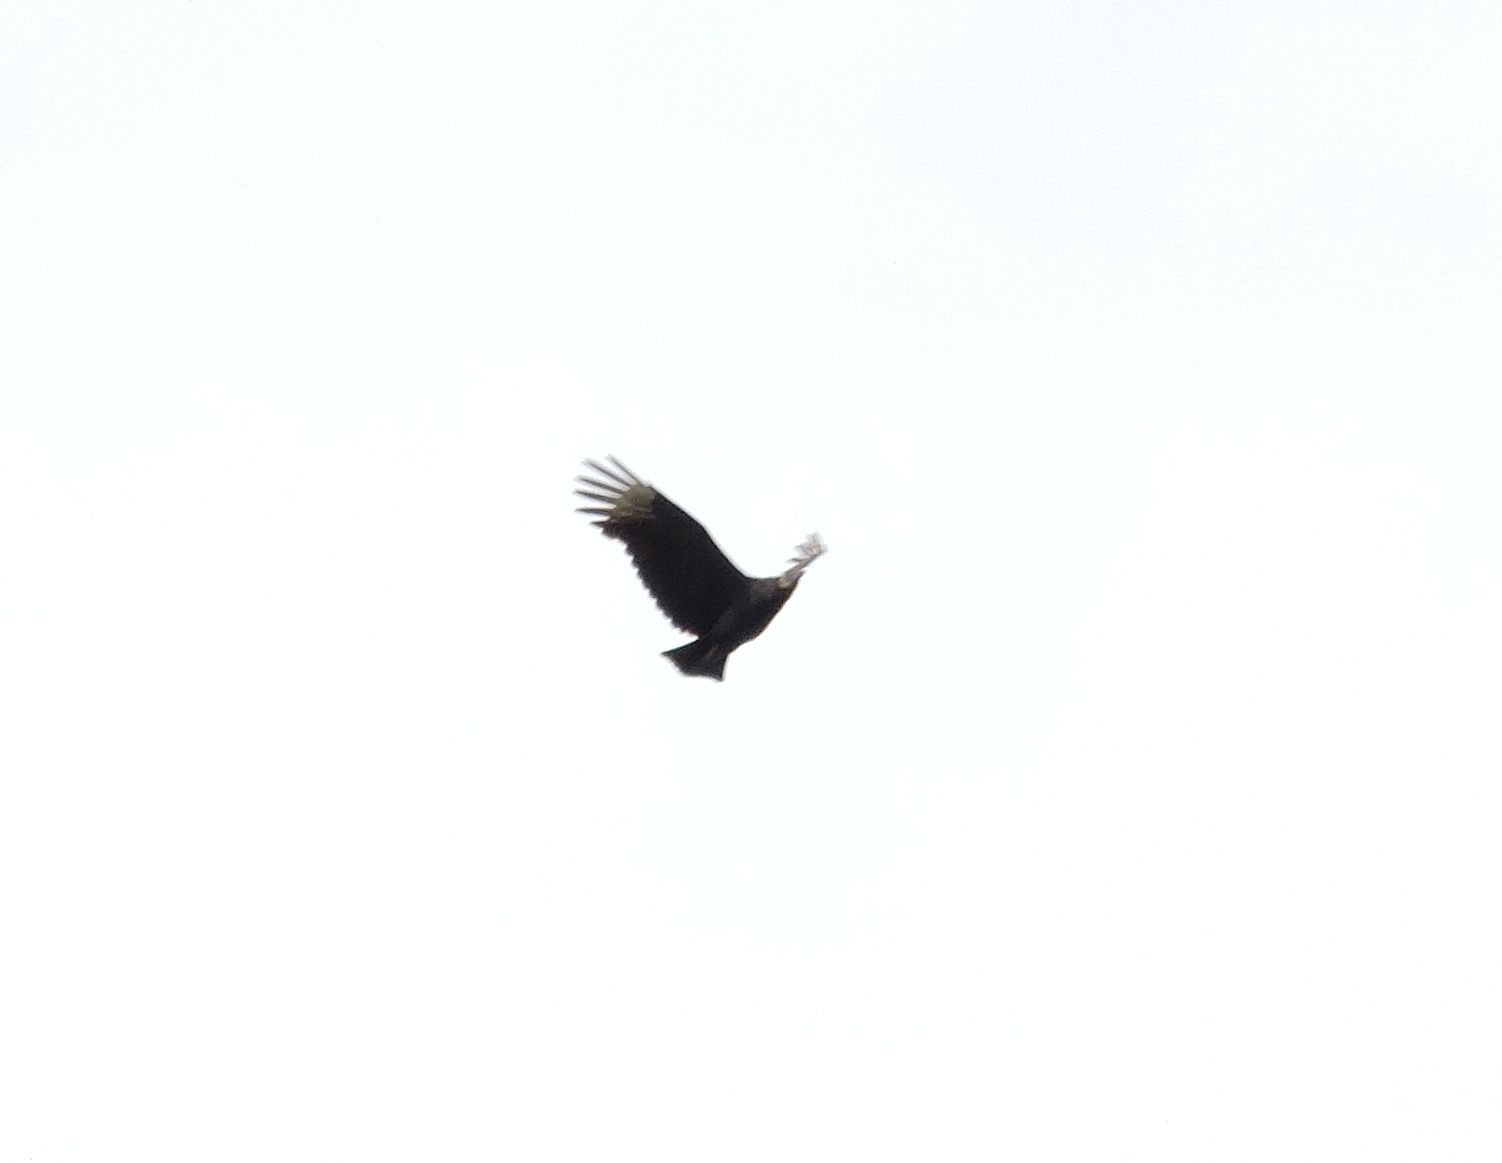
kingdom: Animalia
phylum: Chordata
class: Aves
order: Accipitriformes
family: Cathartidae
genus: Coragyps
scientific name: Coragyps atratus
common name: Black vulture
